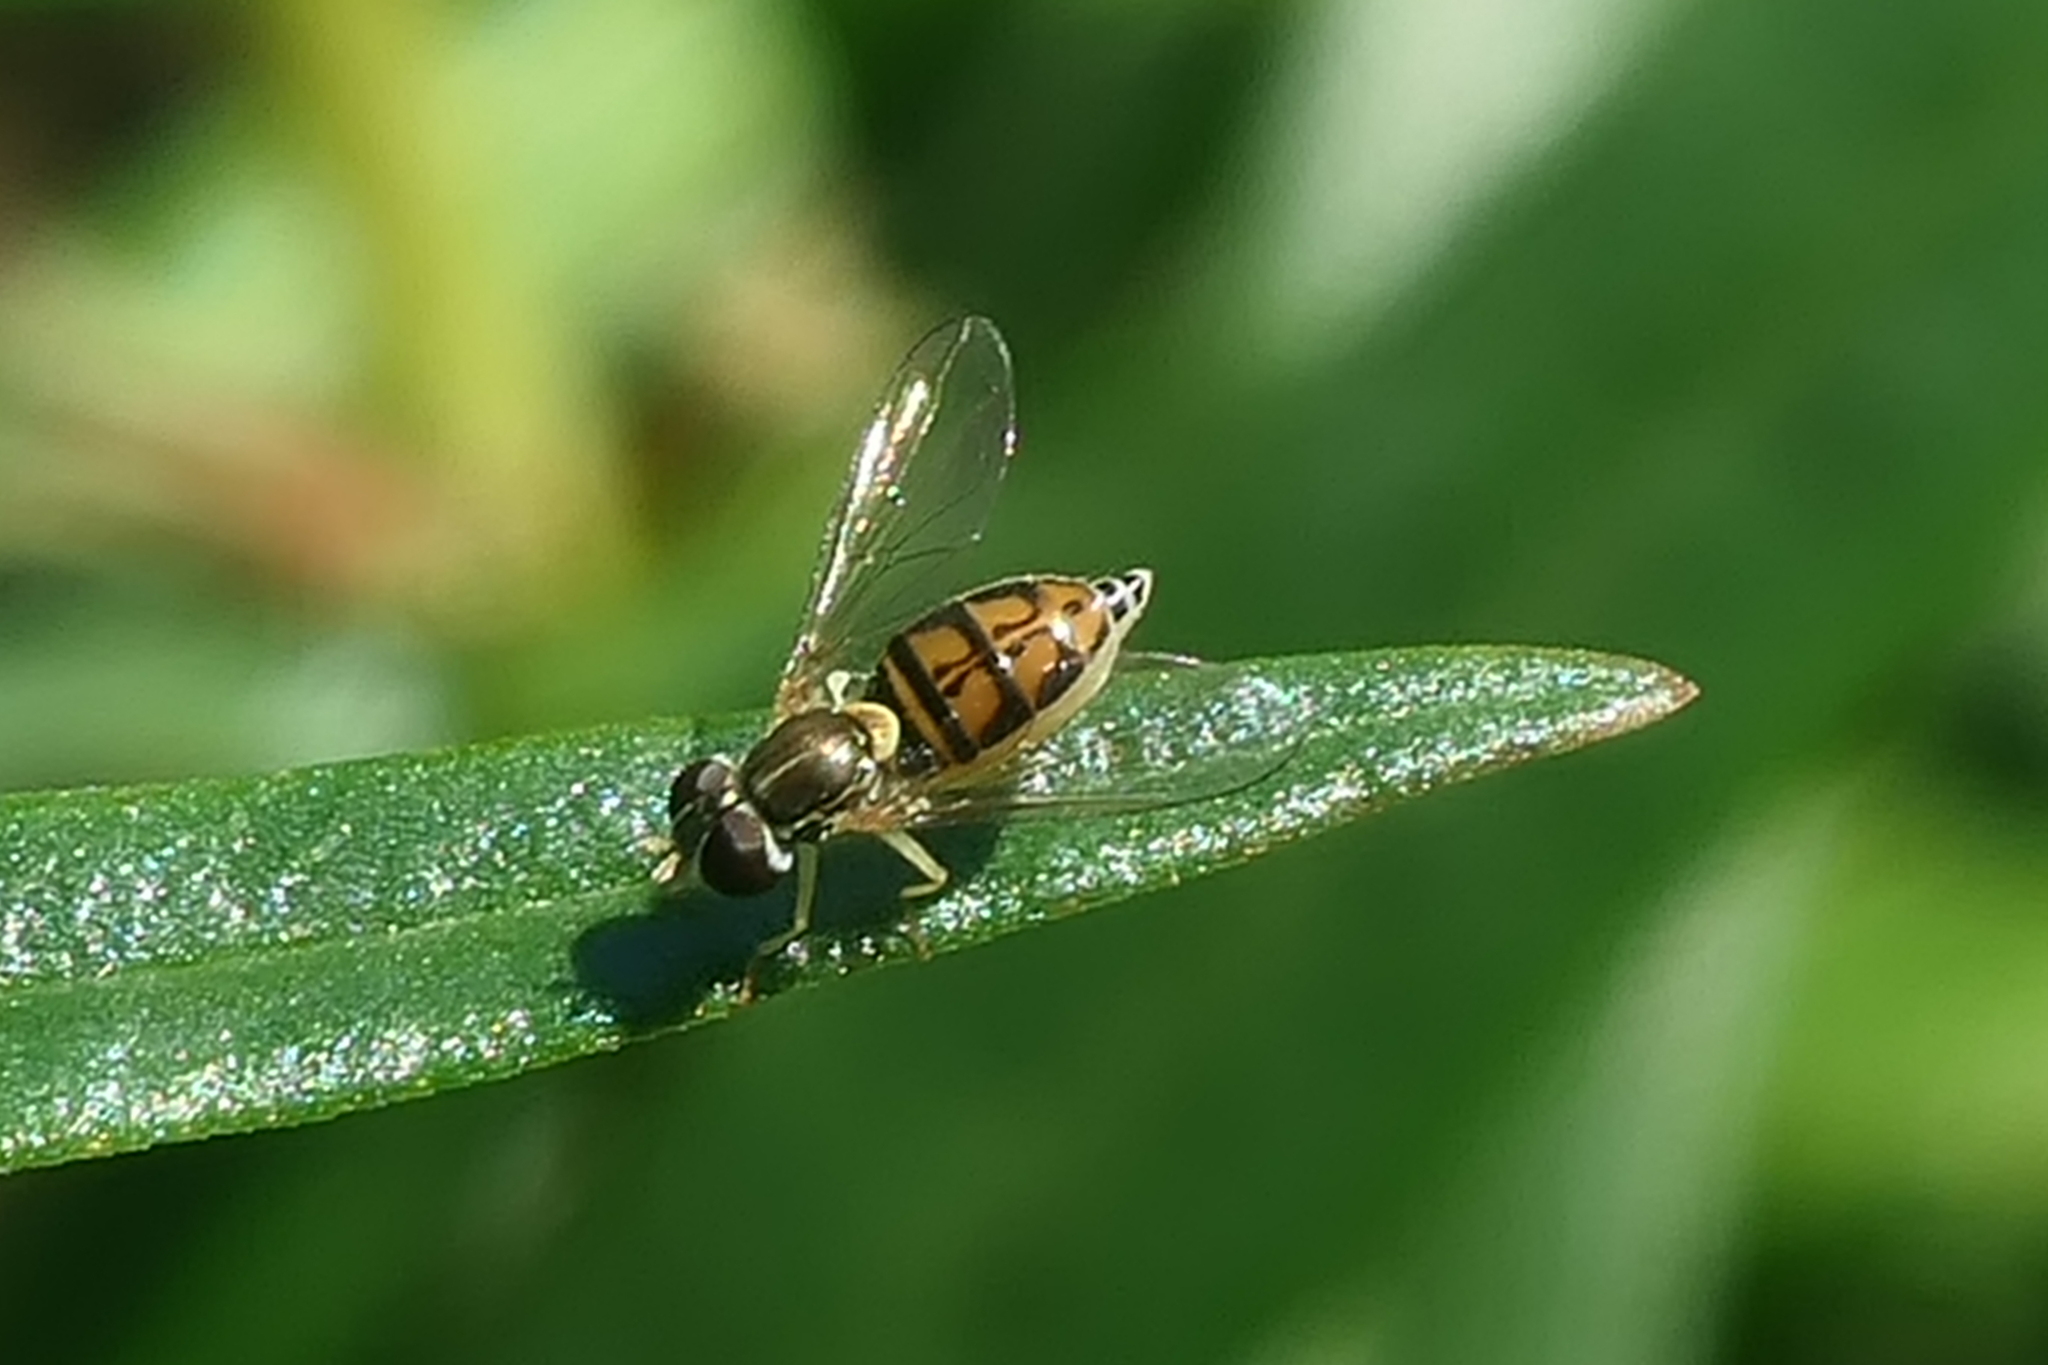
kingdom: Animalia
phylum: Arthropoda
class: Insecta
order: Diptera
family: Syrphidae
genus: Toxomerus
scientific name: Toxomerus marginatus
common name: Syrphid fly
